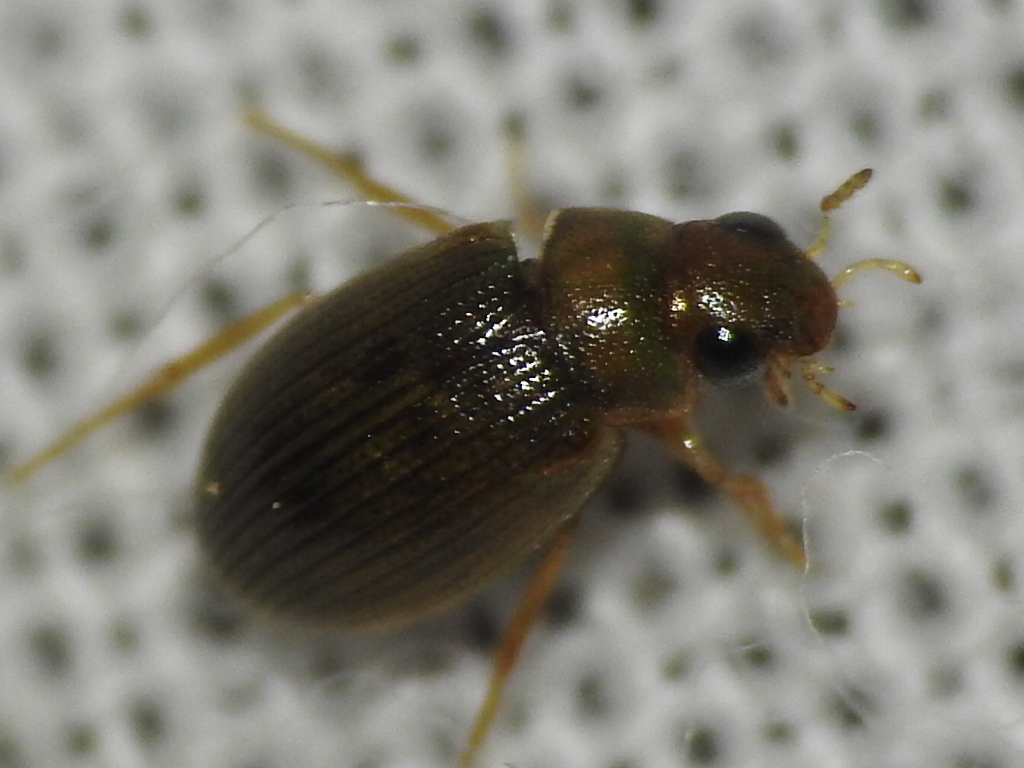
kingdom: Animalia
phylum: Arthropoda
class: Insecta
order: Coleoptera
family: Hydrophilidae
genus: Berosus
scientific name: Berosus
